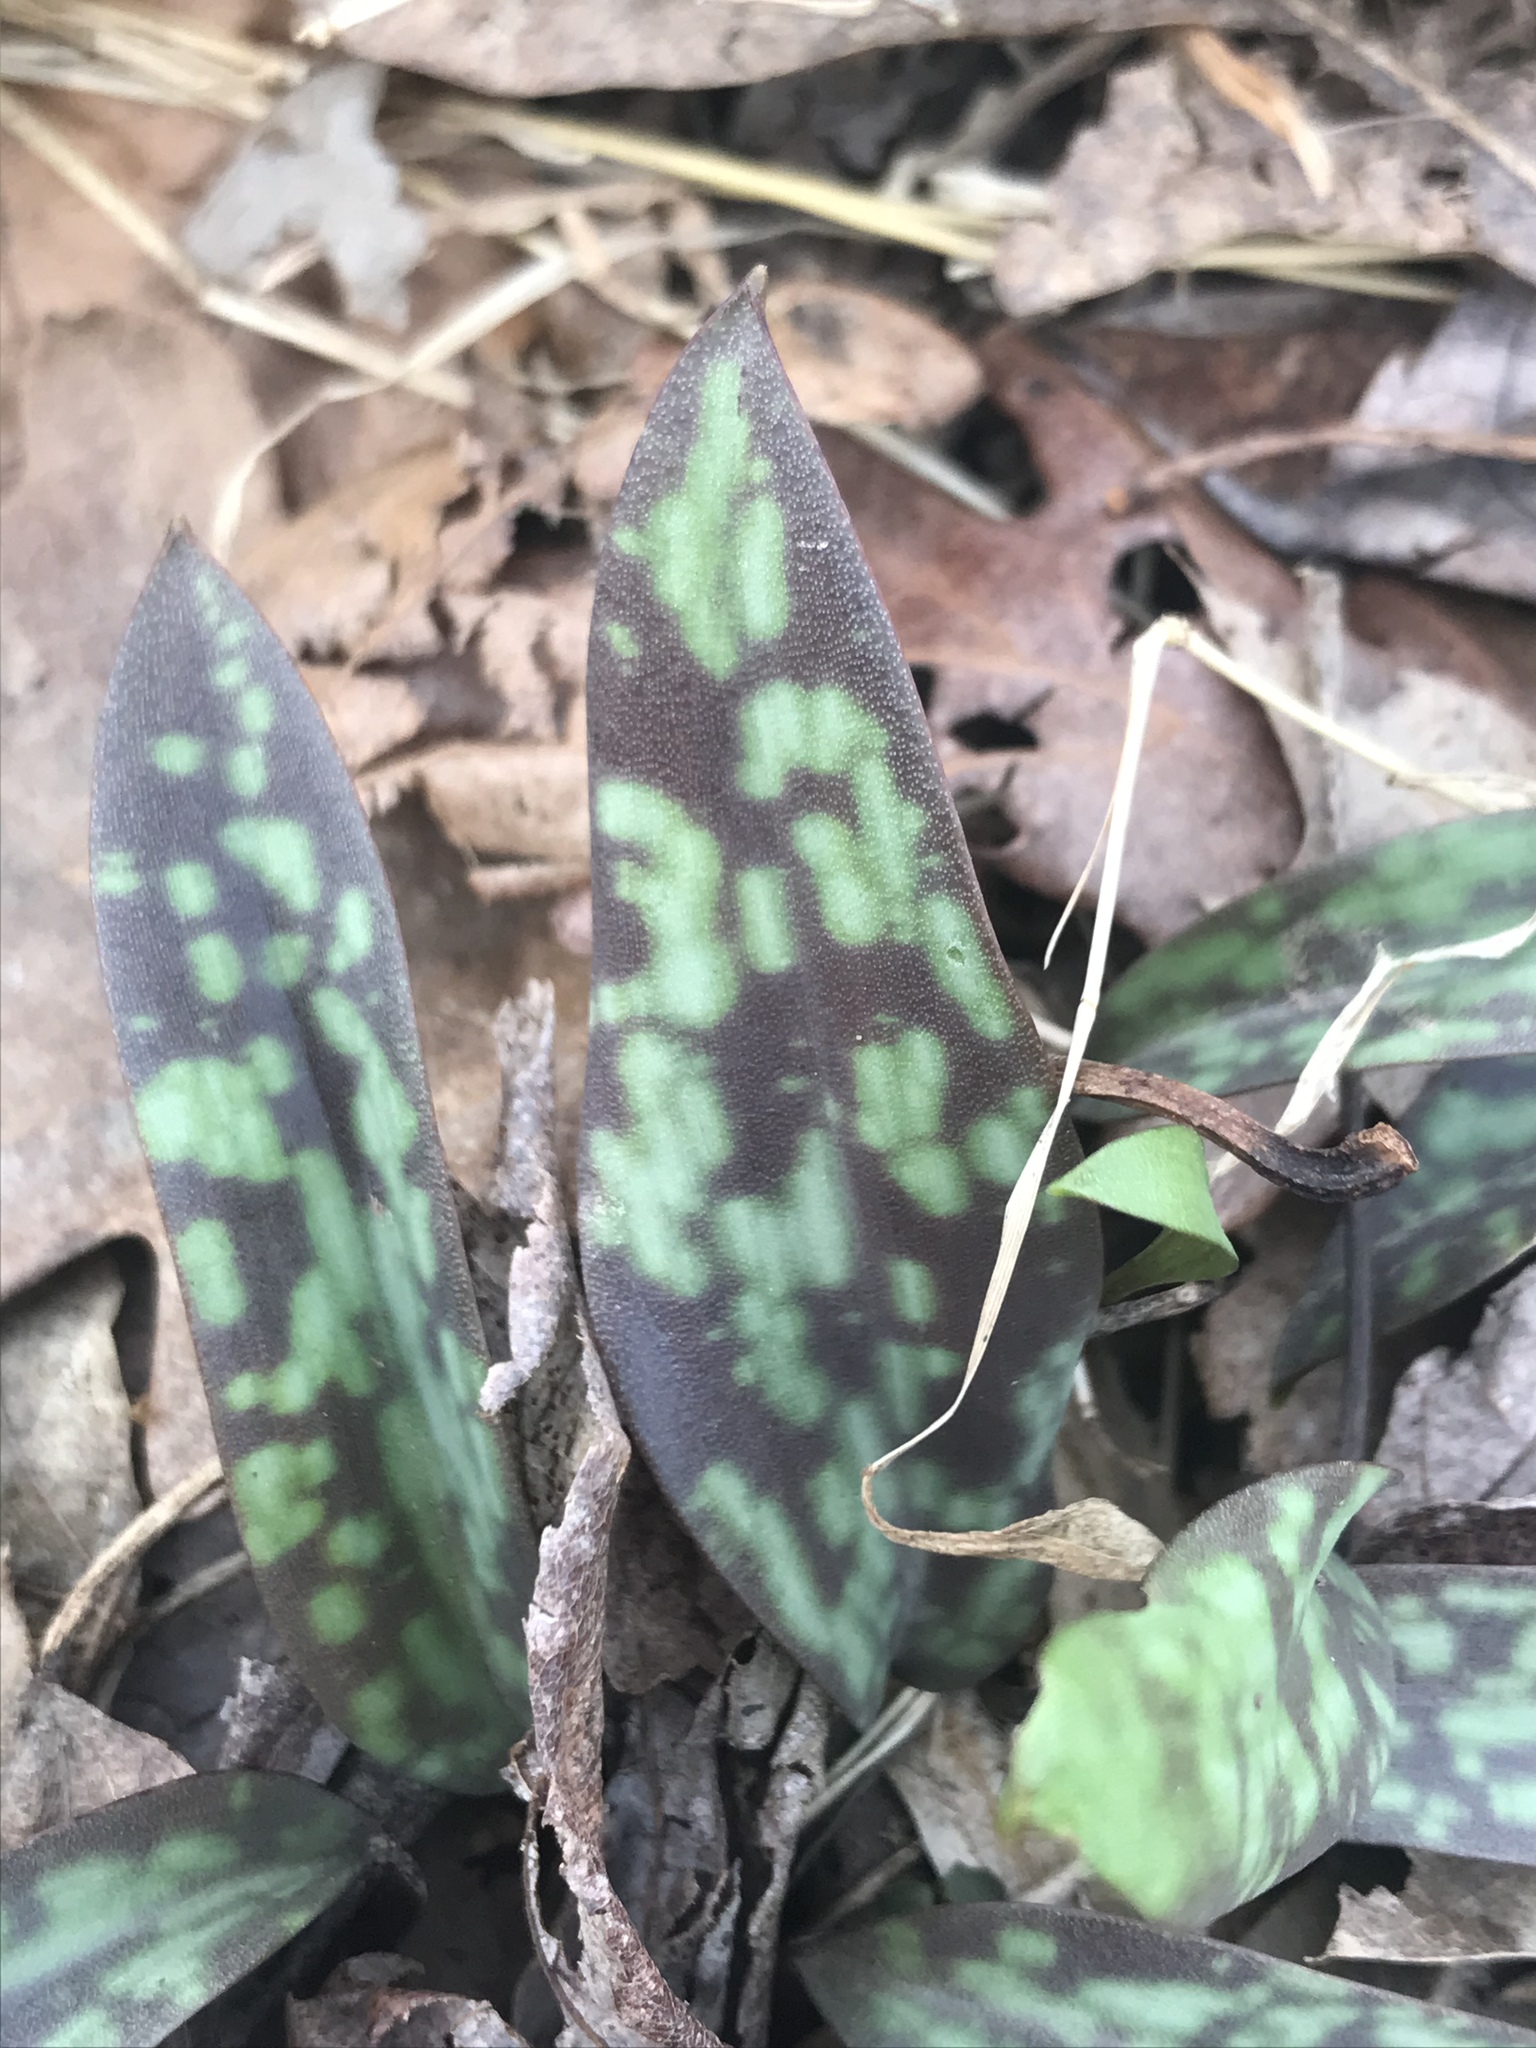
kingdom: Plantae
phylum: Tracheophyta
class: Liliopsida
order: Liliales
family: Liliaceae
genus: Erythronium
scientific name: Erythronium americanum
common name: Yellow adder's-tongue
